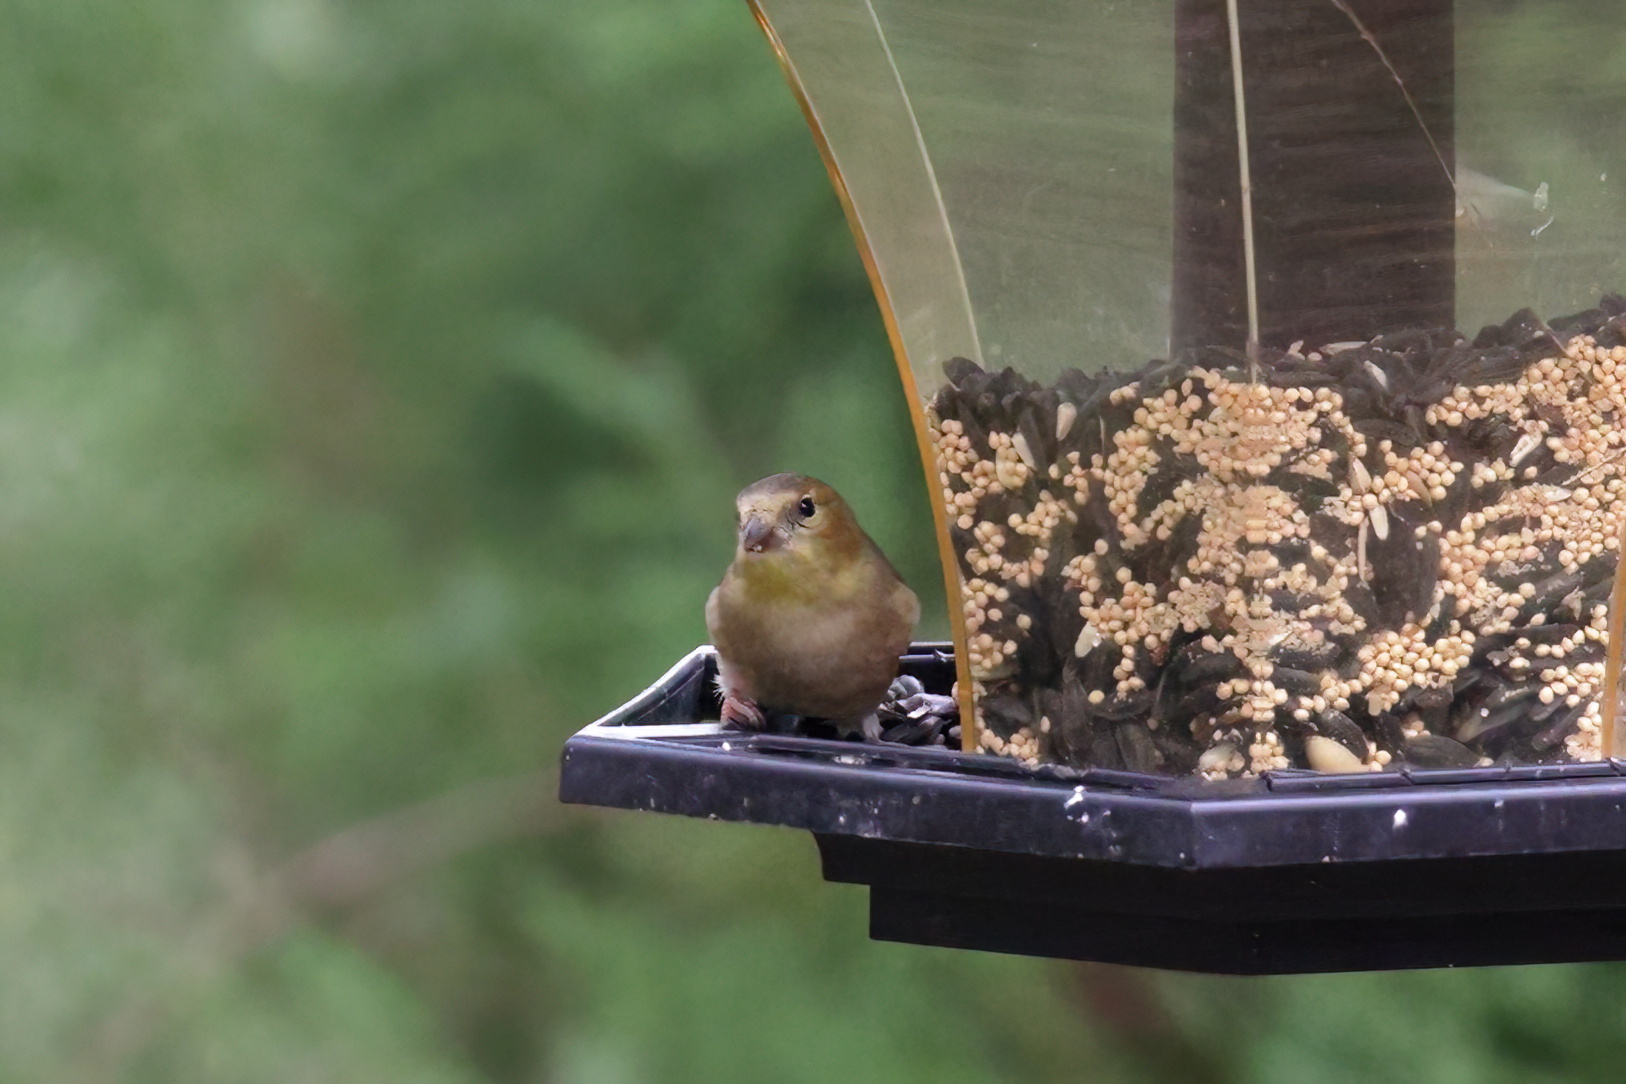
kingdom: Animalia
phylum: Chordata
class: Aves
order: Passeriformes
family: Fringillidae
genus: Spinus
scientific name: Spinus tristis
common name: American goldfinch
